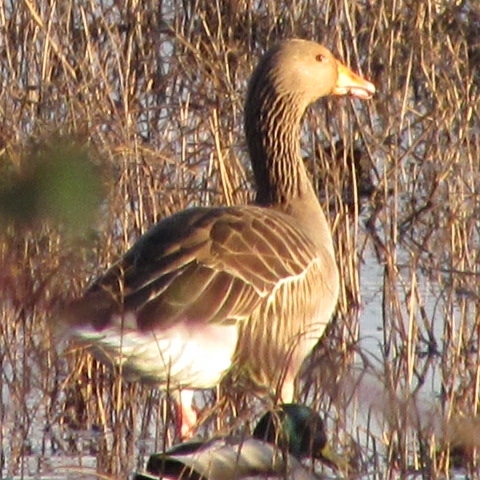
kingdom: Animalia
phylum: Chordata
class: Aves
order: Anseriformes
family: Anatidae
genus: Anser
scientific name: Anser anser
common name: Greylag goose
